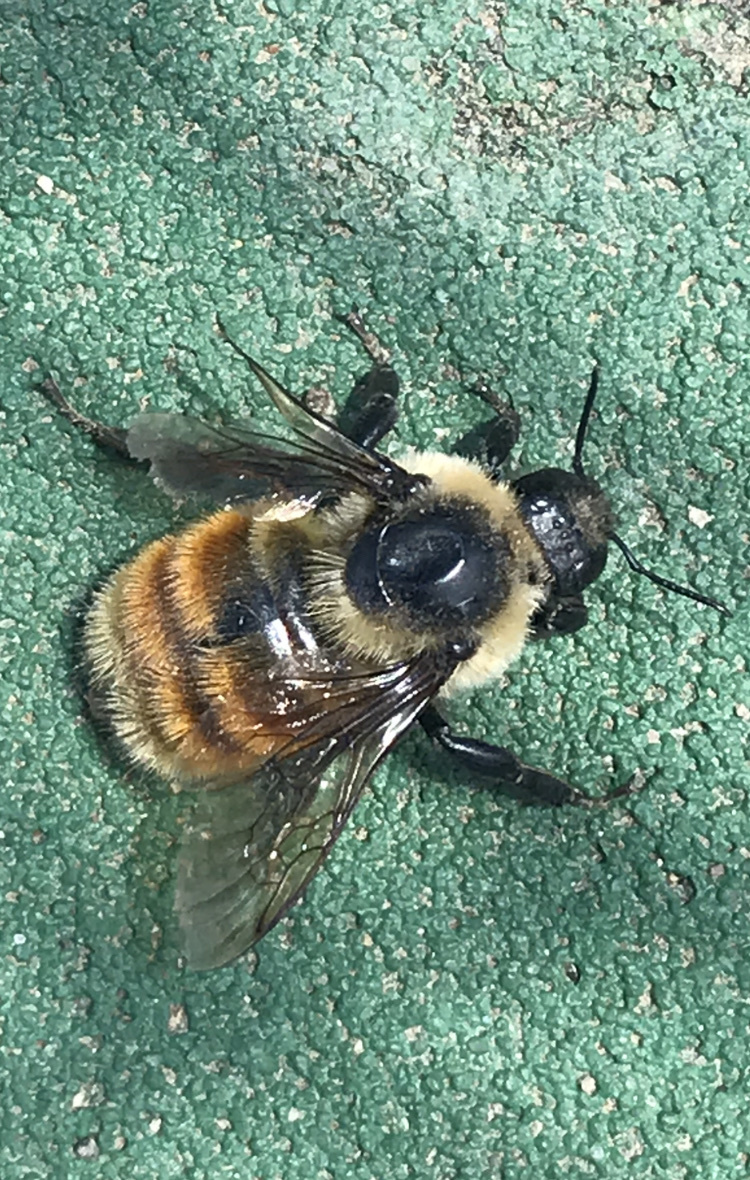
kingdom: Animalia
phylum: Arthropoda
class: Insecta
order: Hymenoptera
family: Apidae
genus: Bombus
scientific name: Bombus rufocinctus
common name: Red-belted bumble bee
